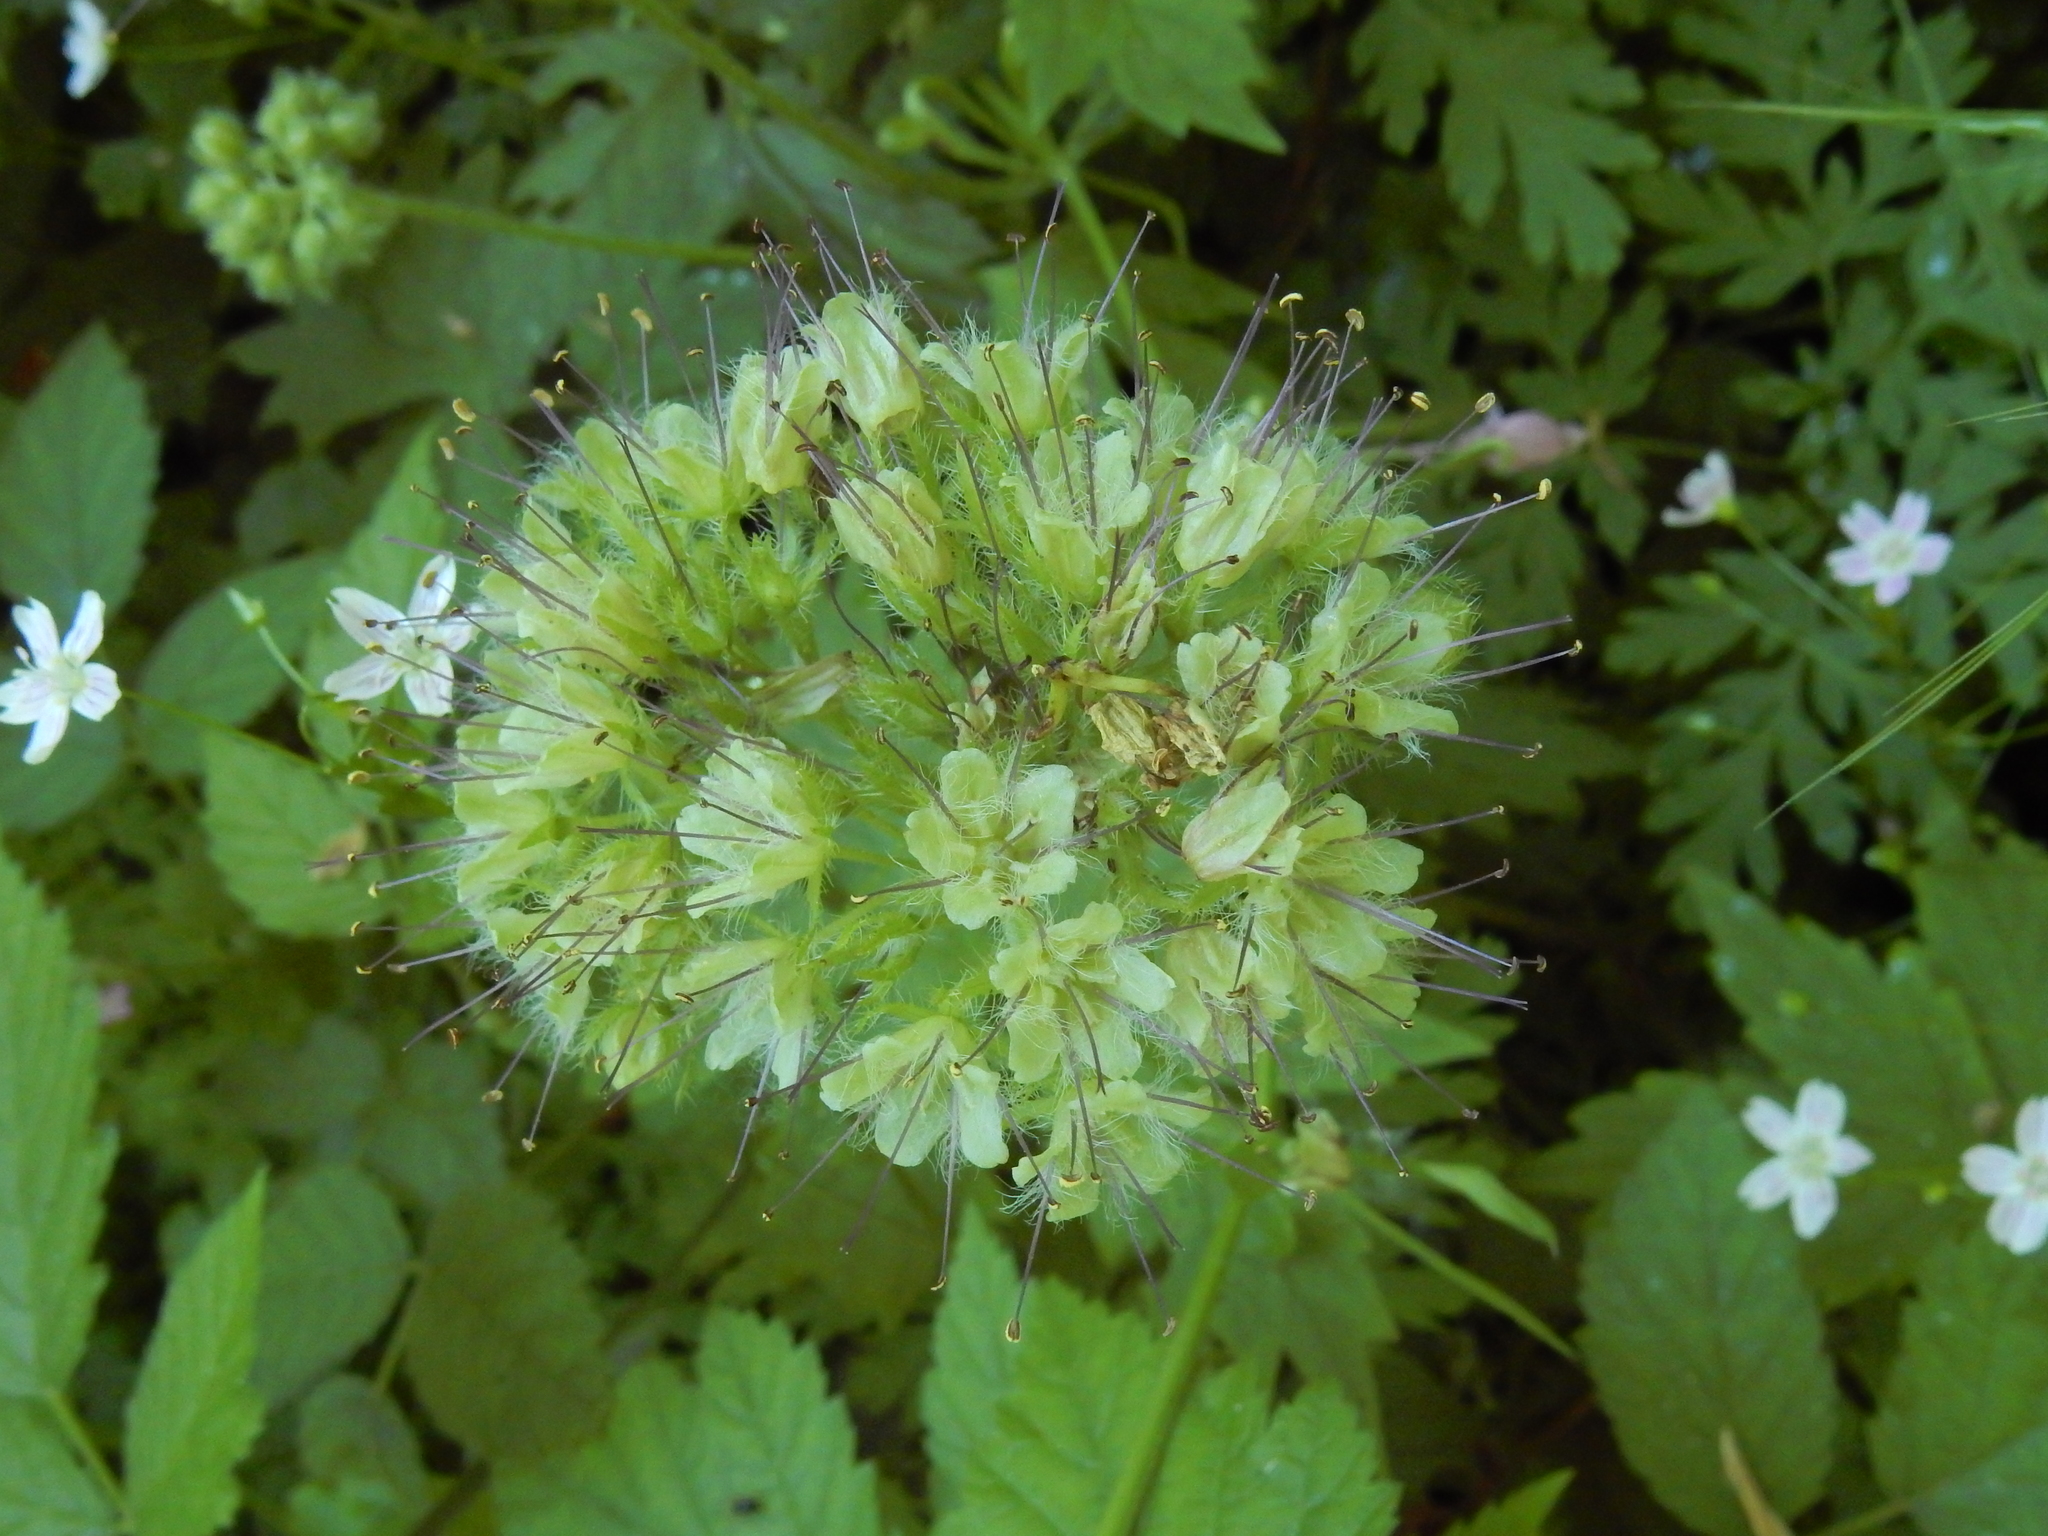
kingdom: Plantae
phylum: Tracheophyta
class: Magnoliopsida
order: Boraginales
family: Hydrophyllaceae
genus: Hydrophyllum
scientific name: Hydrophyllum tenuipes
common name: Pacific waterleaf
